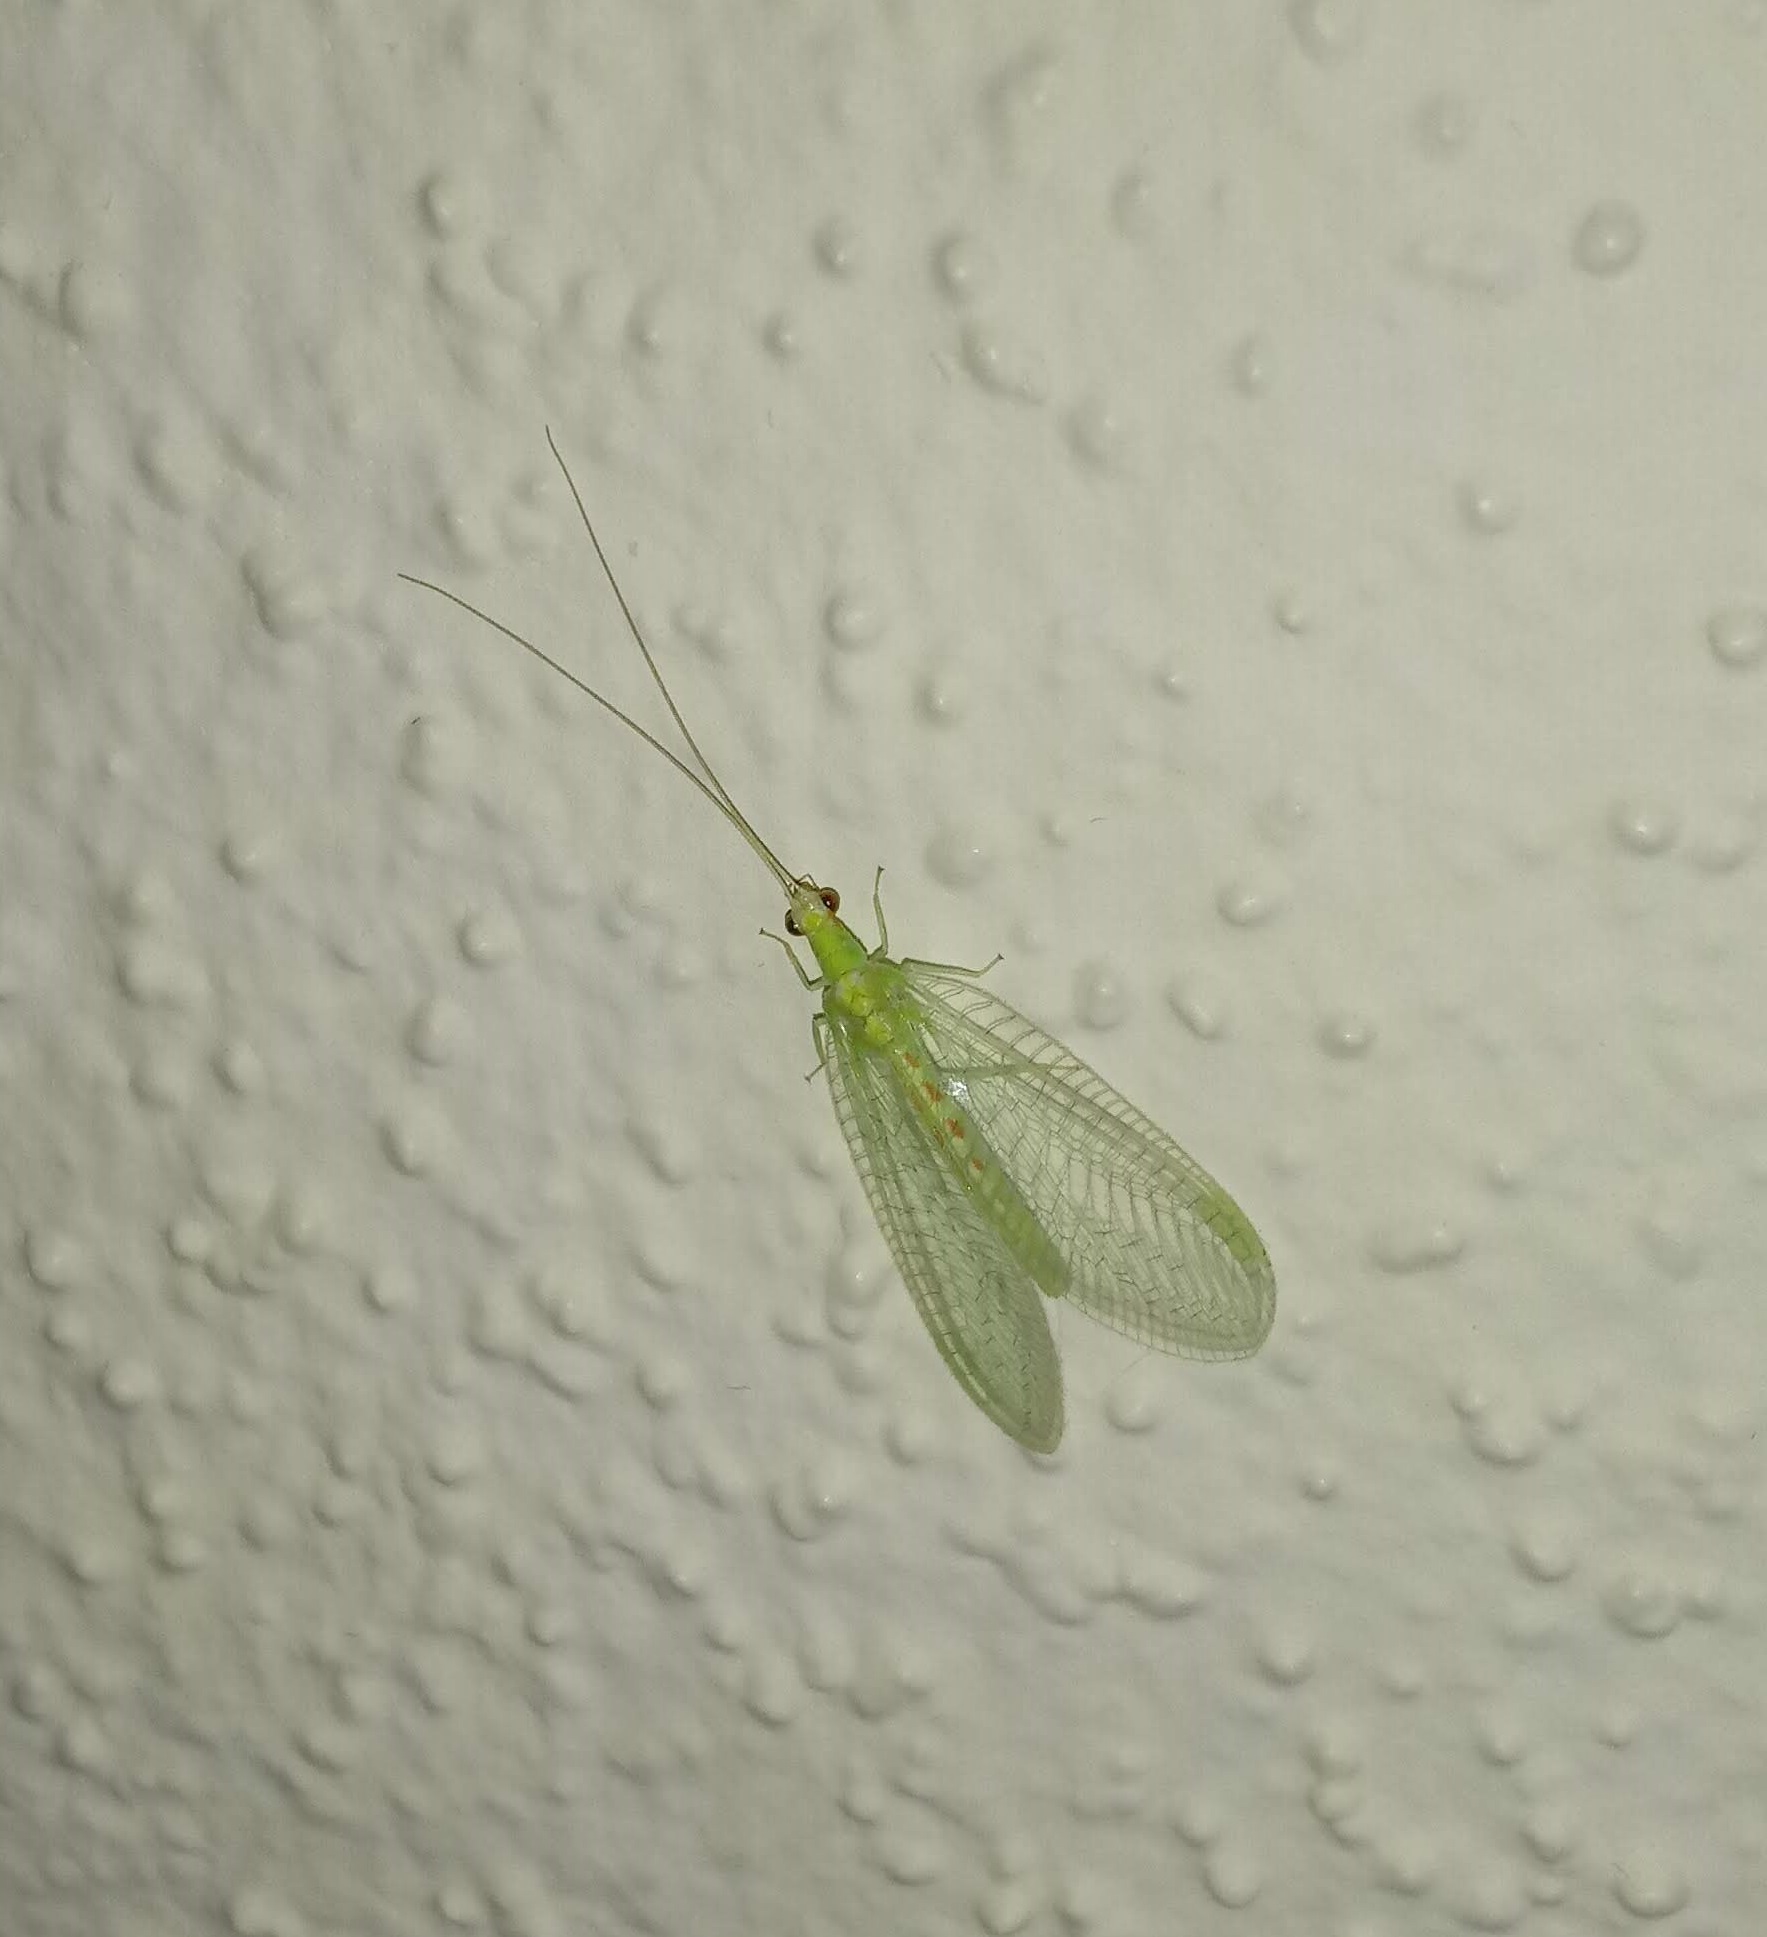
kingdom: Animalia
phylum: Arthropoda
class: Insecta
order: Neuroptera
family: Chrysopidae
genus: Chrysopa
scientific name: Chrysopa quadripunctata
